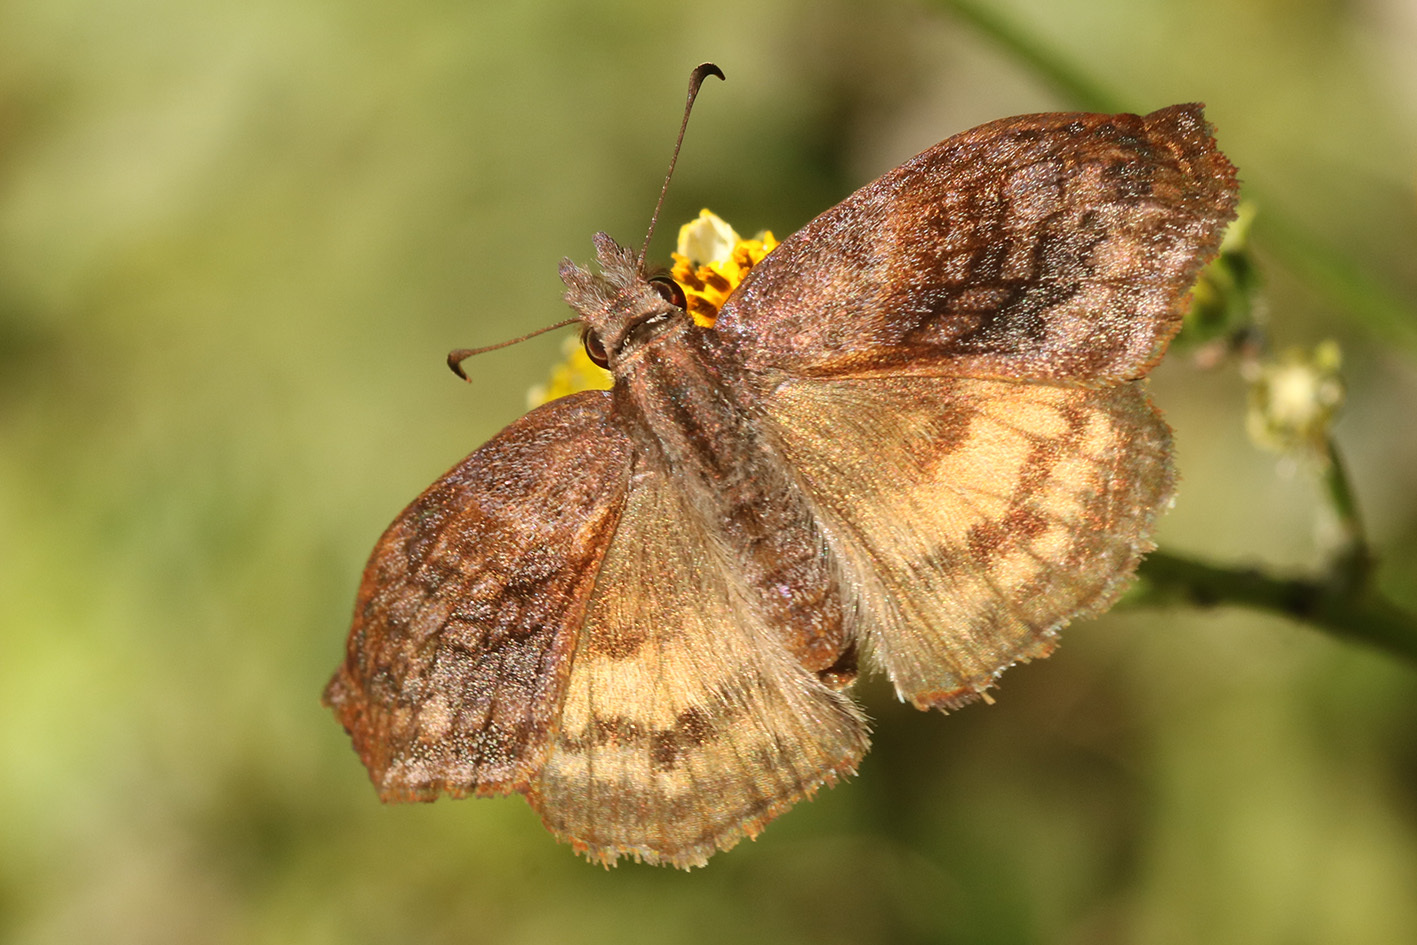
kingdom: Animalia
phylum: Arthropoda
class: Insecta
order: Lepidoptera
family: Hesperiidae
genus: Theagenes
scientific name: Theagenes dichrous
